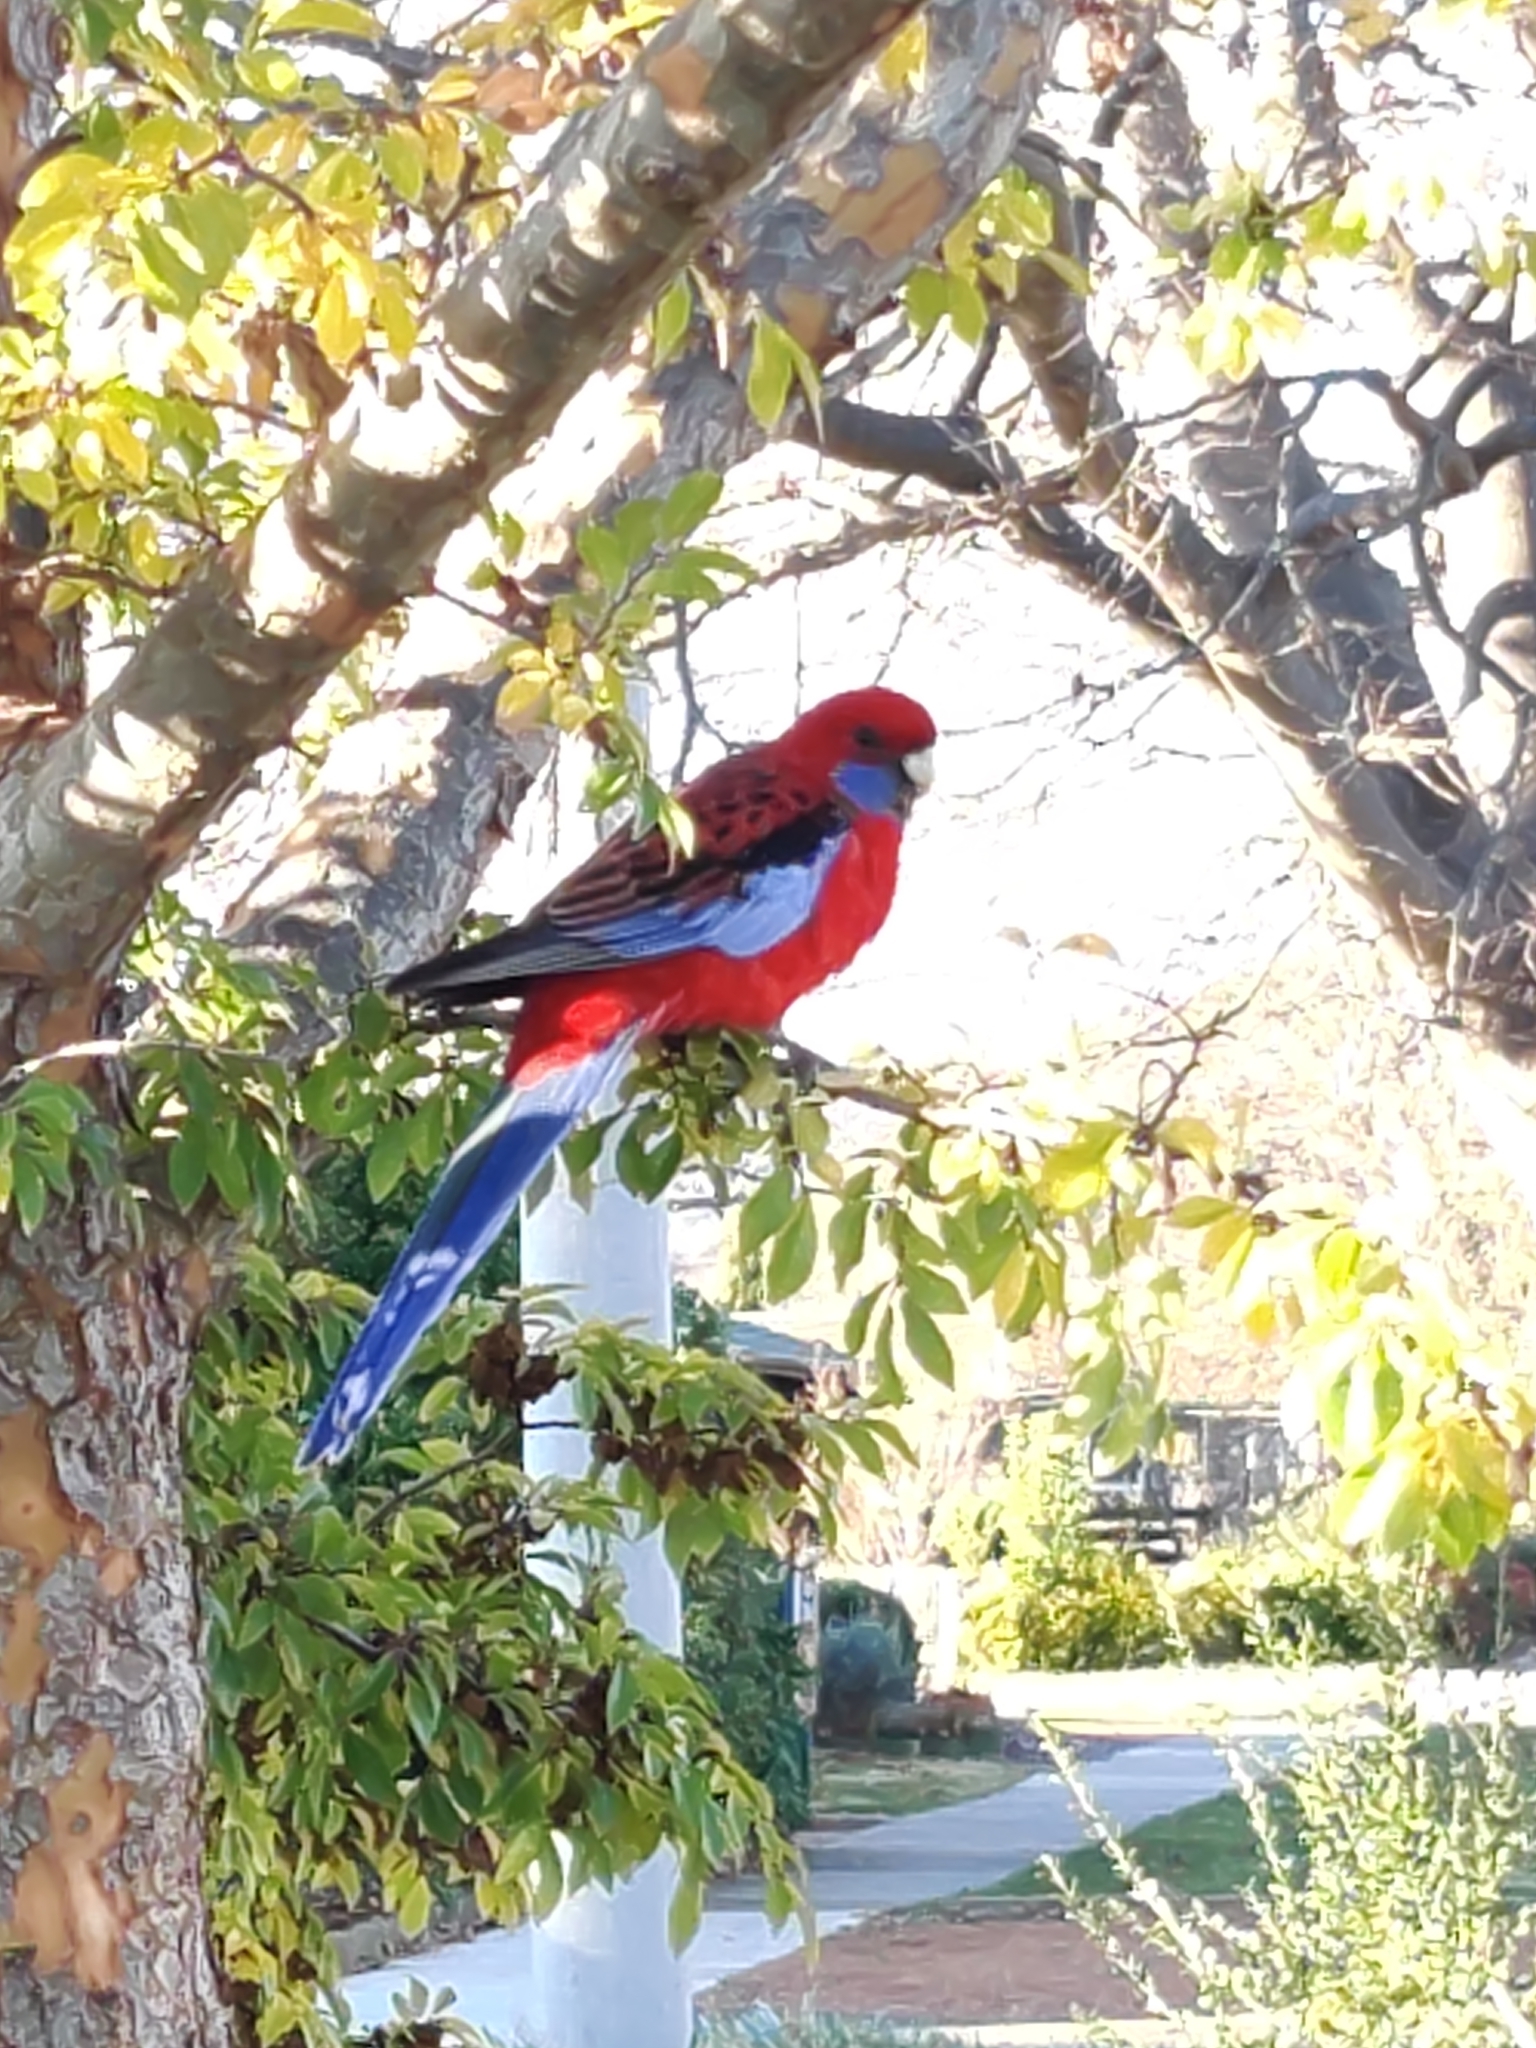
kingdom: Animalia
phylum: Chordata
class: Aves
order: Psittaciformes
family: Psittacidae
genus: Platycercus
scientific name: Platycercus elegans
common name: Crimson rosella
